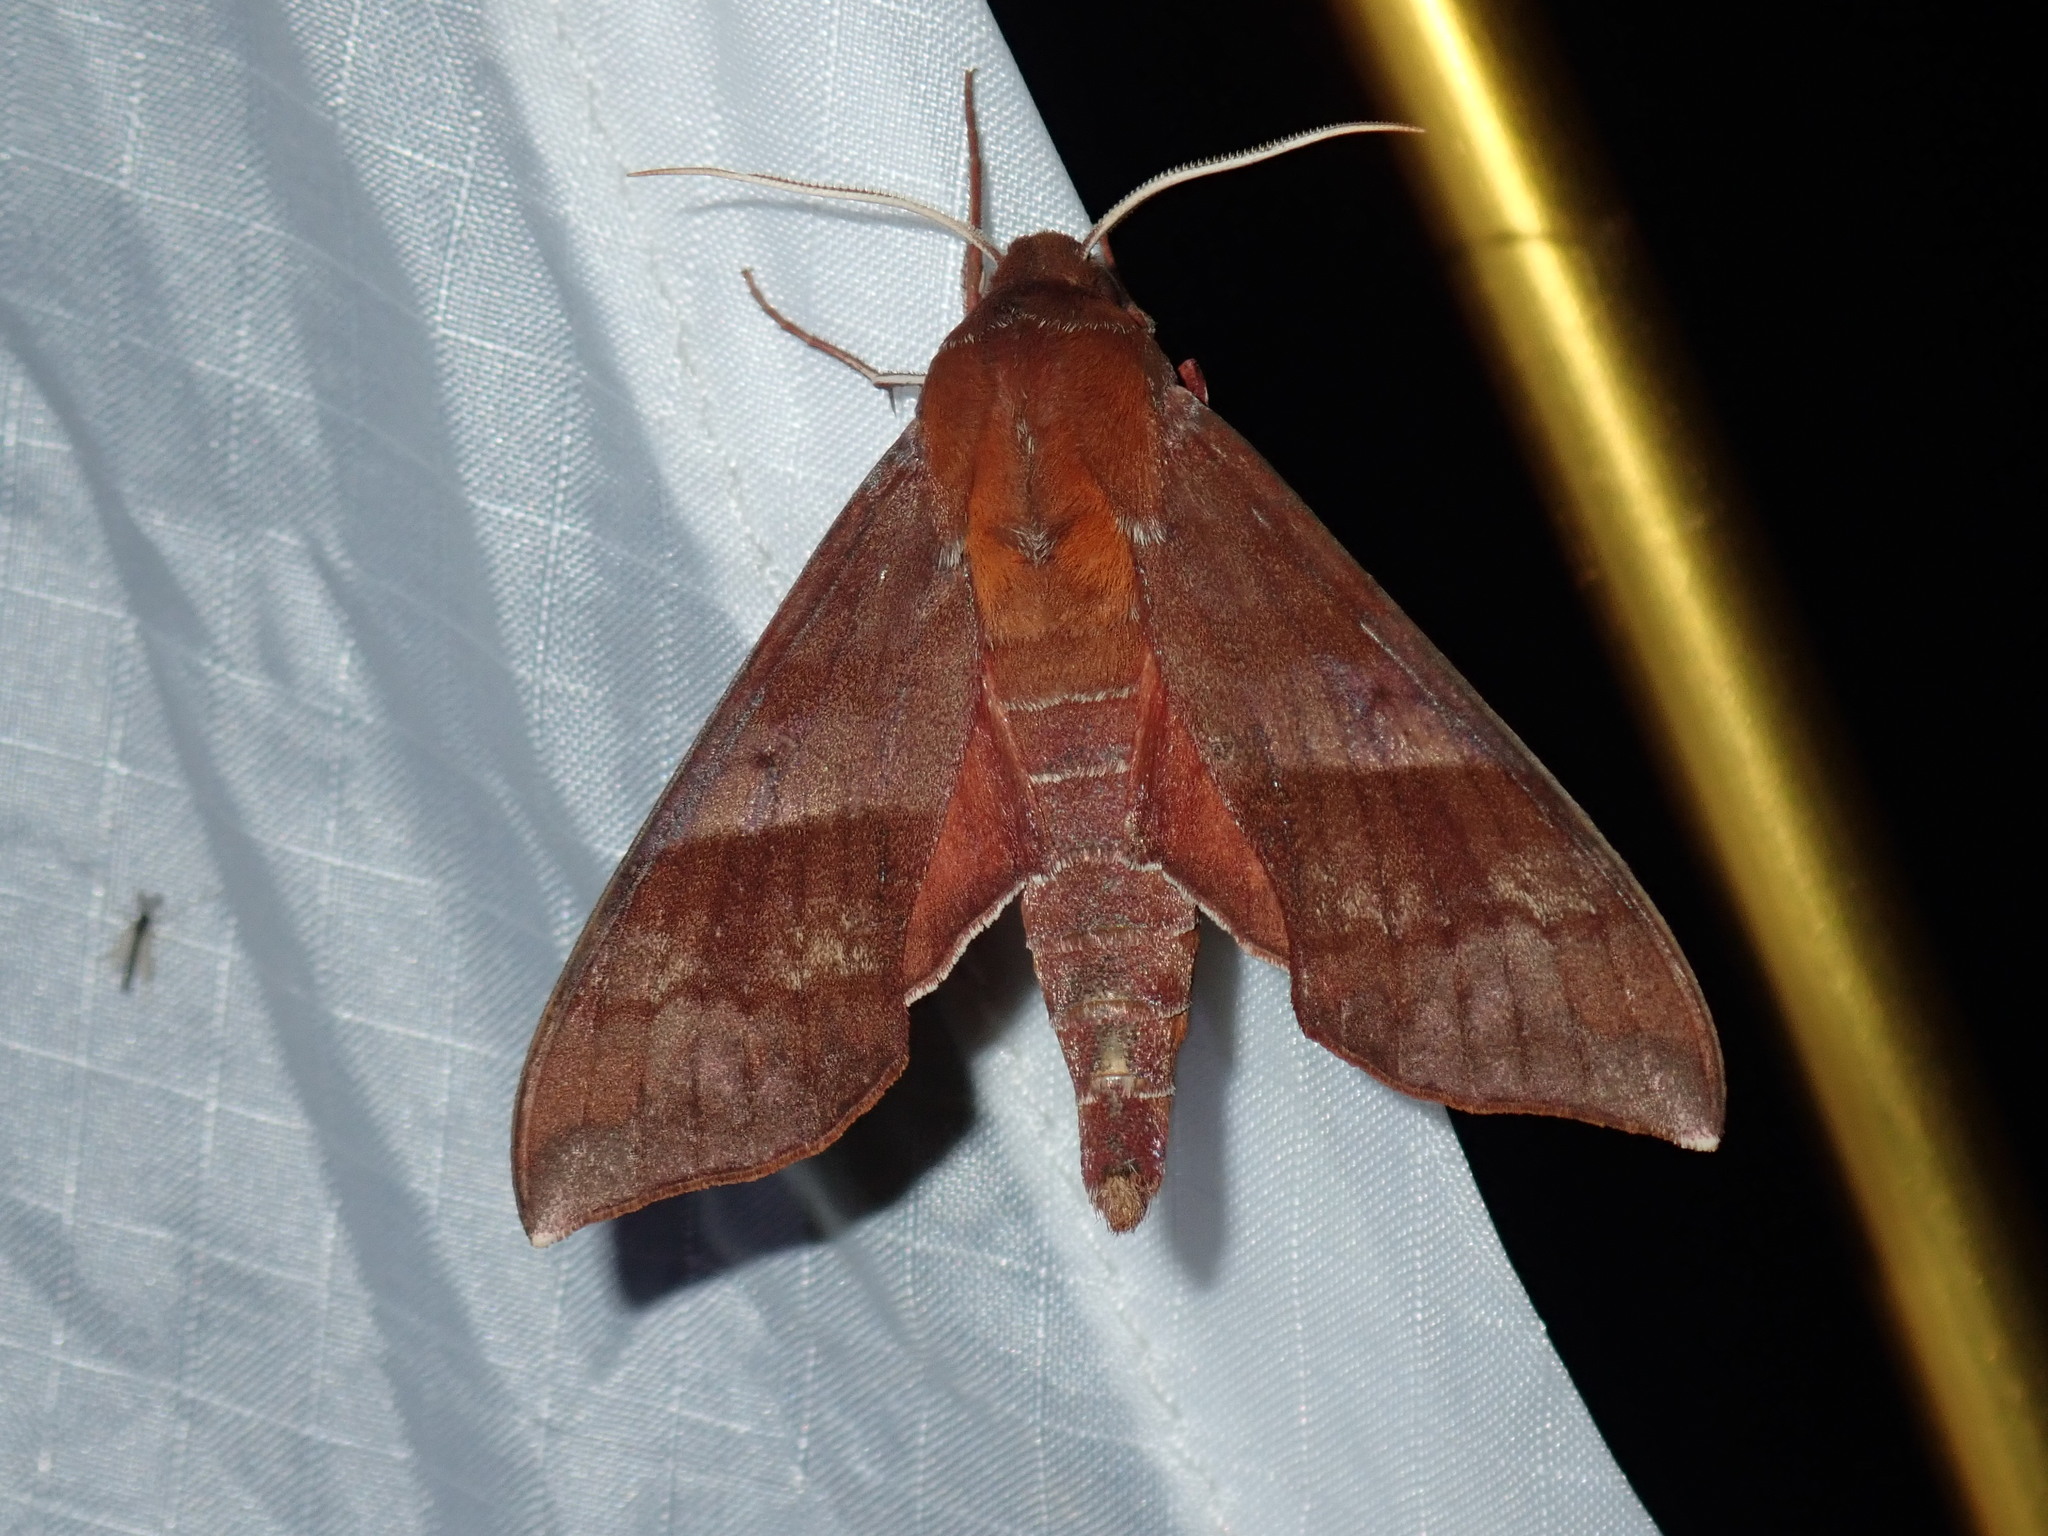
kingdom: Animalia
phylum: Arthropoda
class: Insecta
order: Lepidoptera
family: Sphingidae
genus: Darapsa
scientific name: Darapsa choerilus
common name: Azalea sphinx
